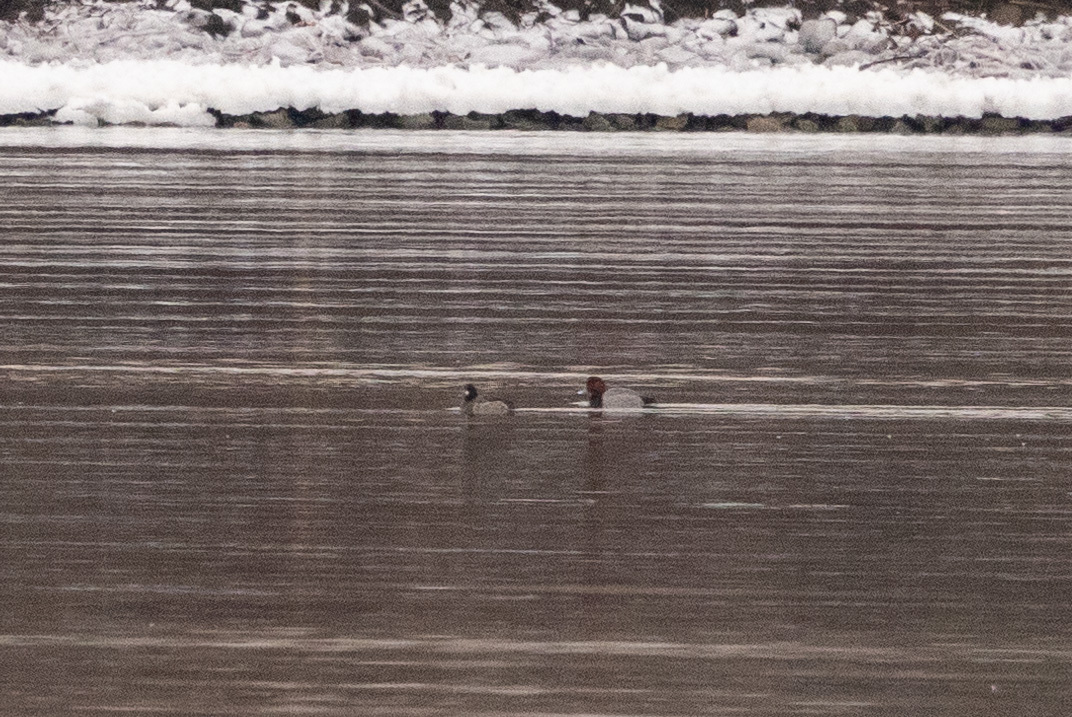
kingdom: Animalia
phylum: Chordata
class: Aves
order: Anseriformes
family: Anatidae
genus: Aythya
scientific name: Aythya americana
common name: Redhead
